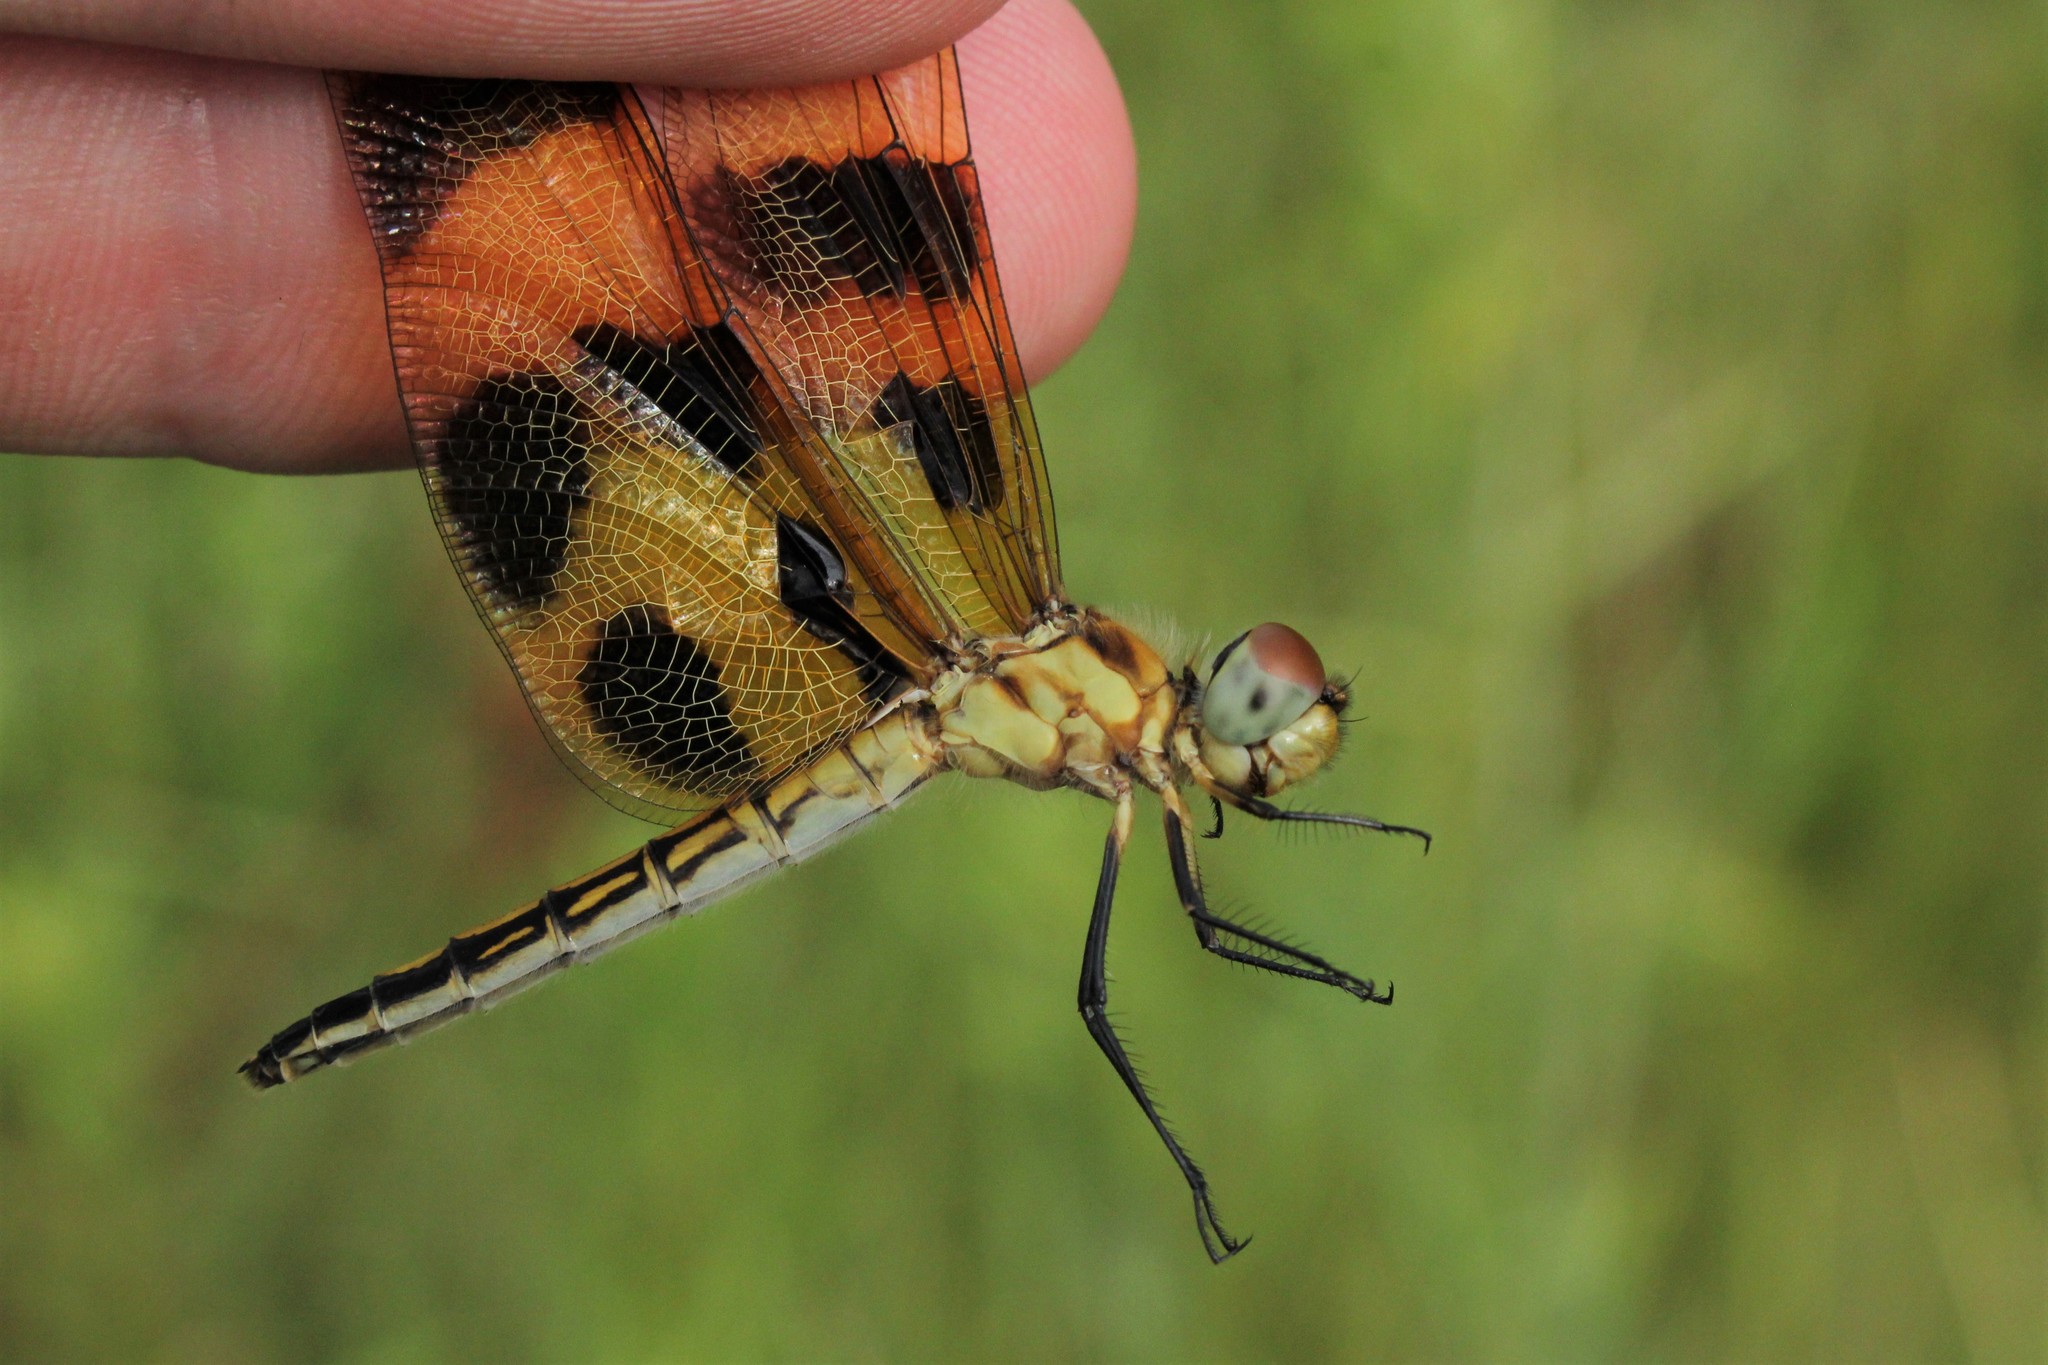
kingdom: Animalia
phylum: Arthropoda
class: Insecta
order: Odonata
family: Libellulidae
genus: Celithemis
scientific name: Celithemis eponina
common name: Halloween pennant
